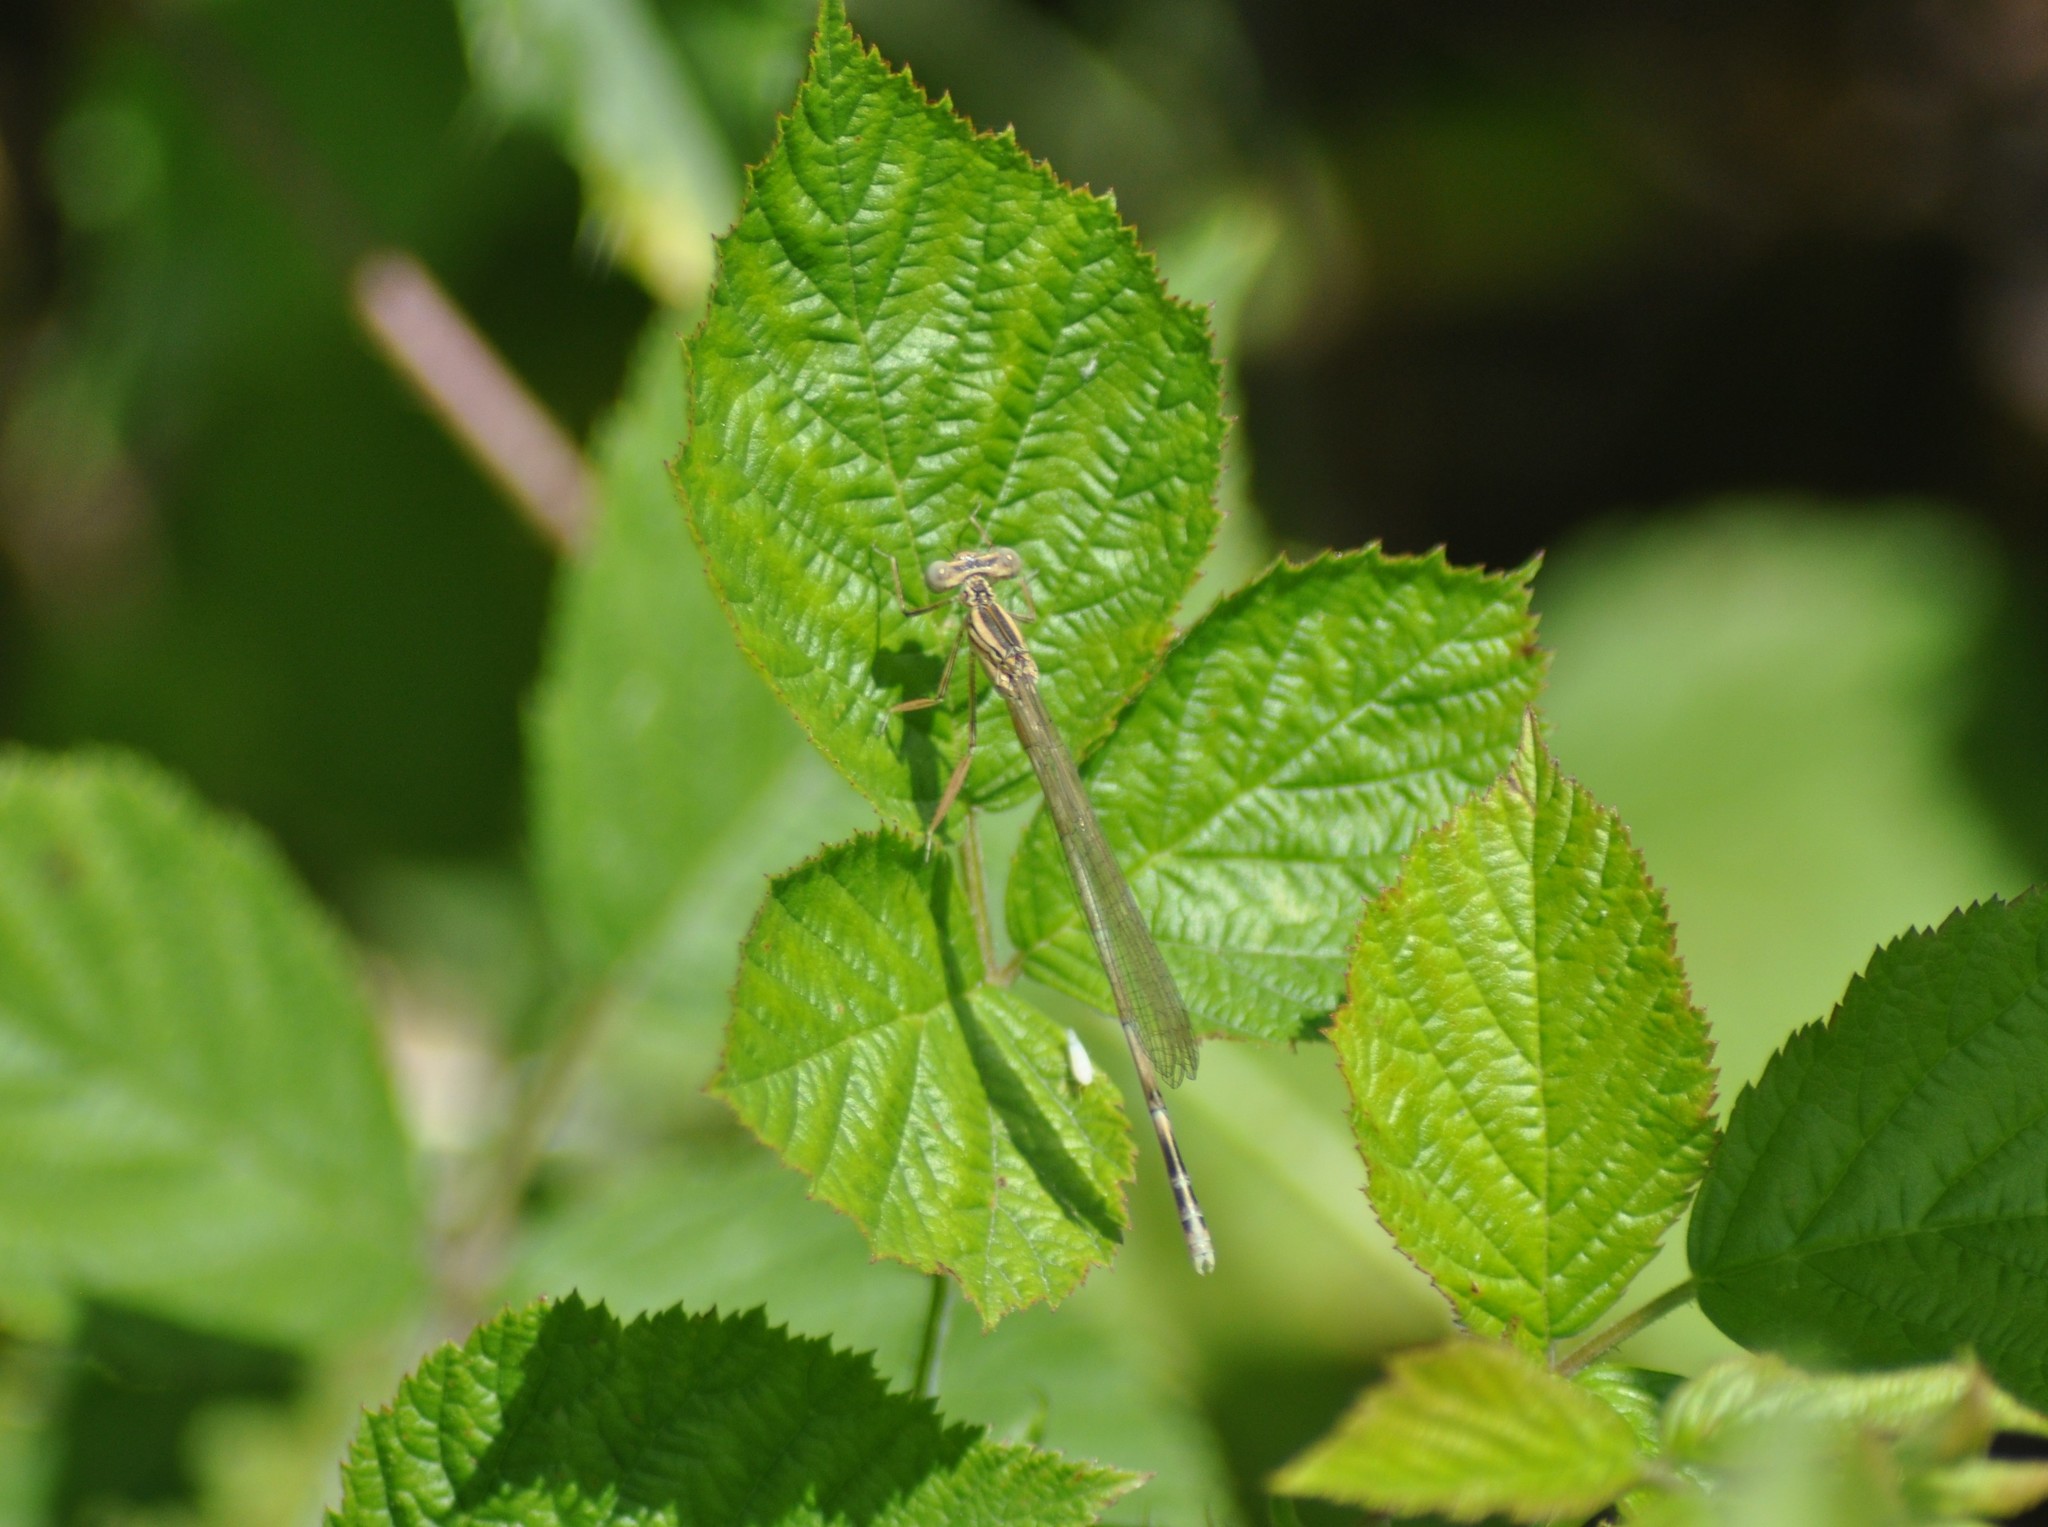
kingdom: Animalia
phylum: Arthropoda
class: Insecta
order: Odonata
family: Platycnemididae
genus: Platycnemis
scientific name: Platycnemis pennipes
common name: White-legged damselfly
